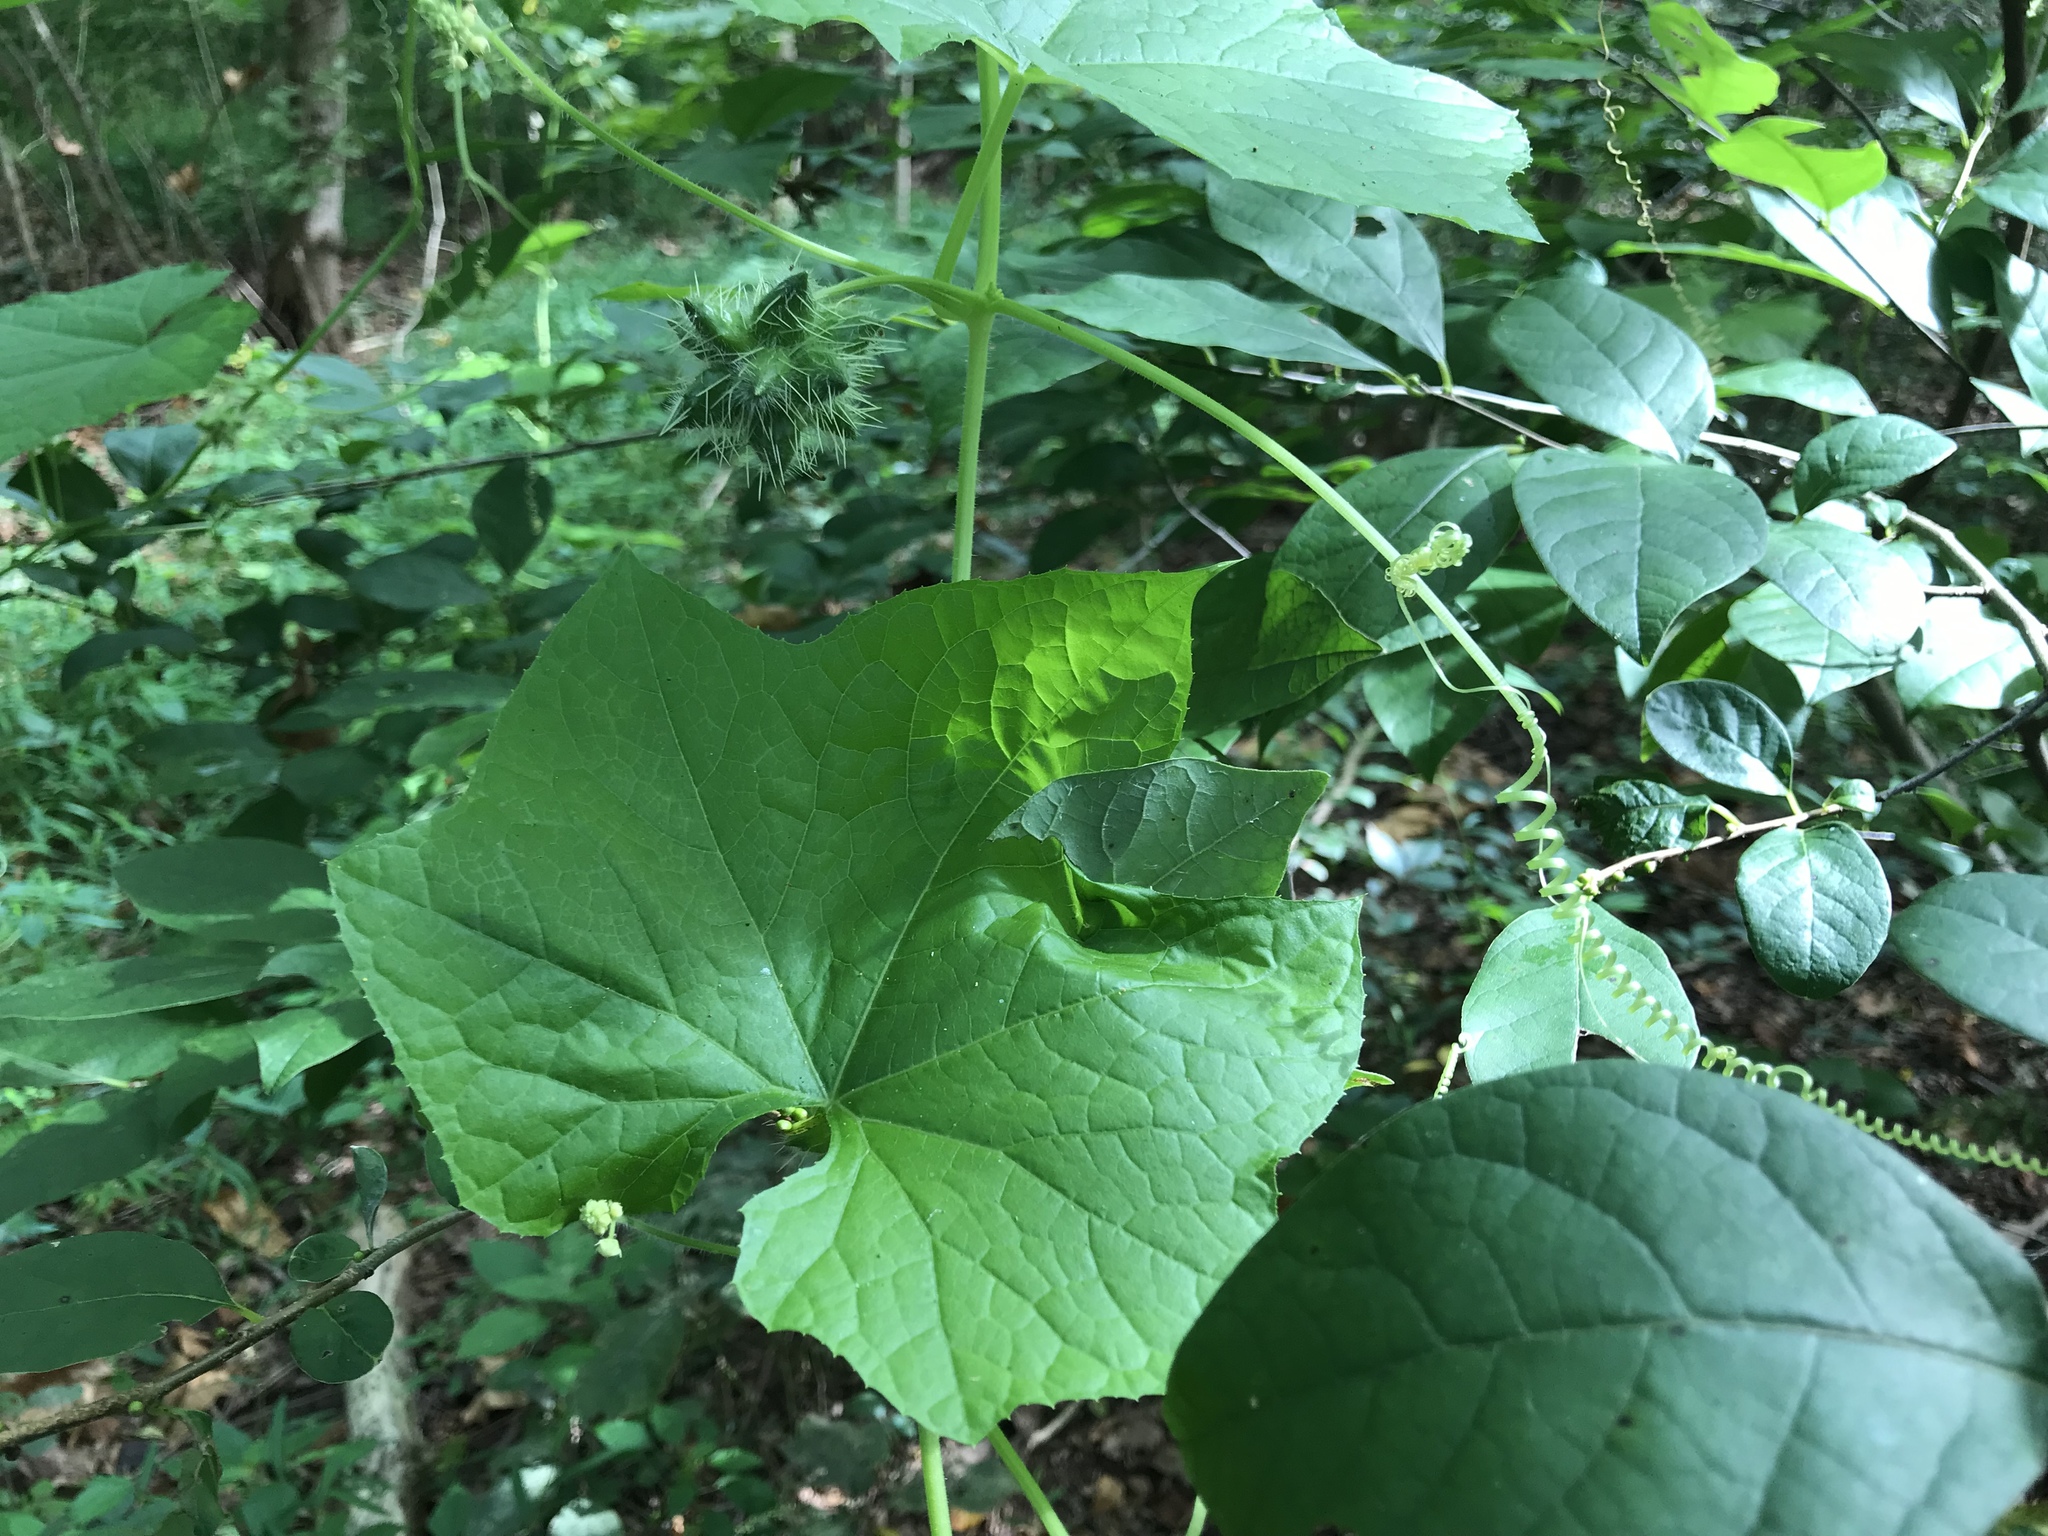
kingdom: Plantae
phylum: Tracheophyta
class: Magnoliopsida
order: Cucurbitales
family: Cucurbitaceae
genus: Sicyos
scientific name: Sicyos angulatus
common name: Angled burr cucumber
